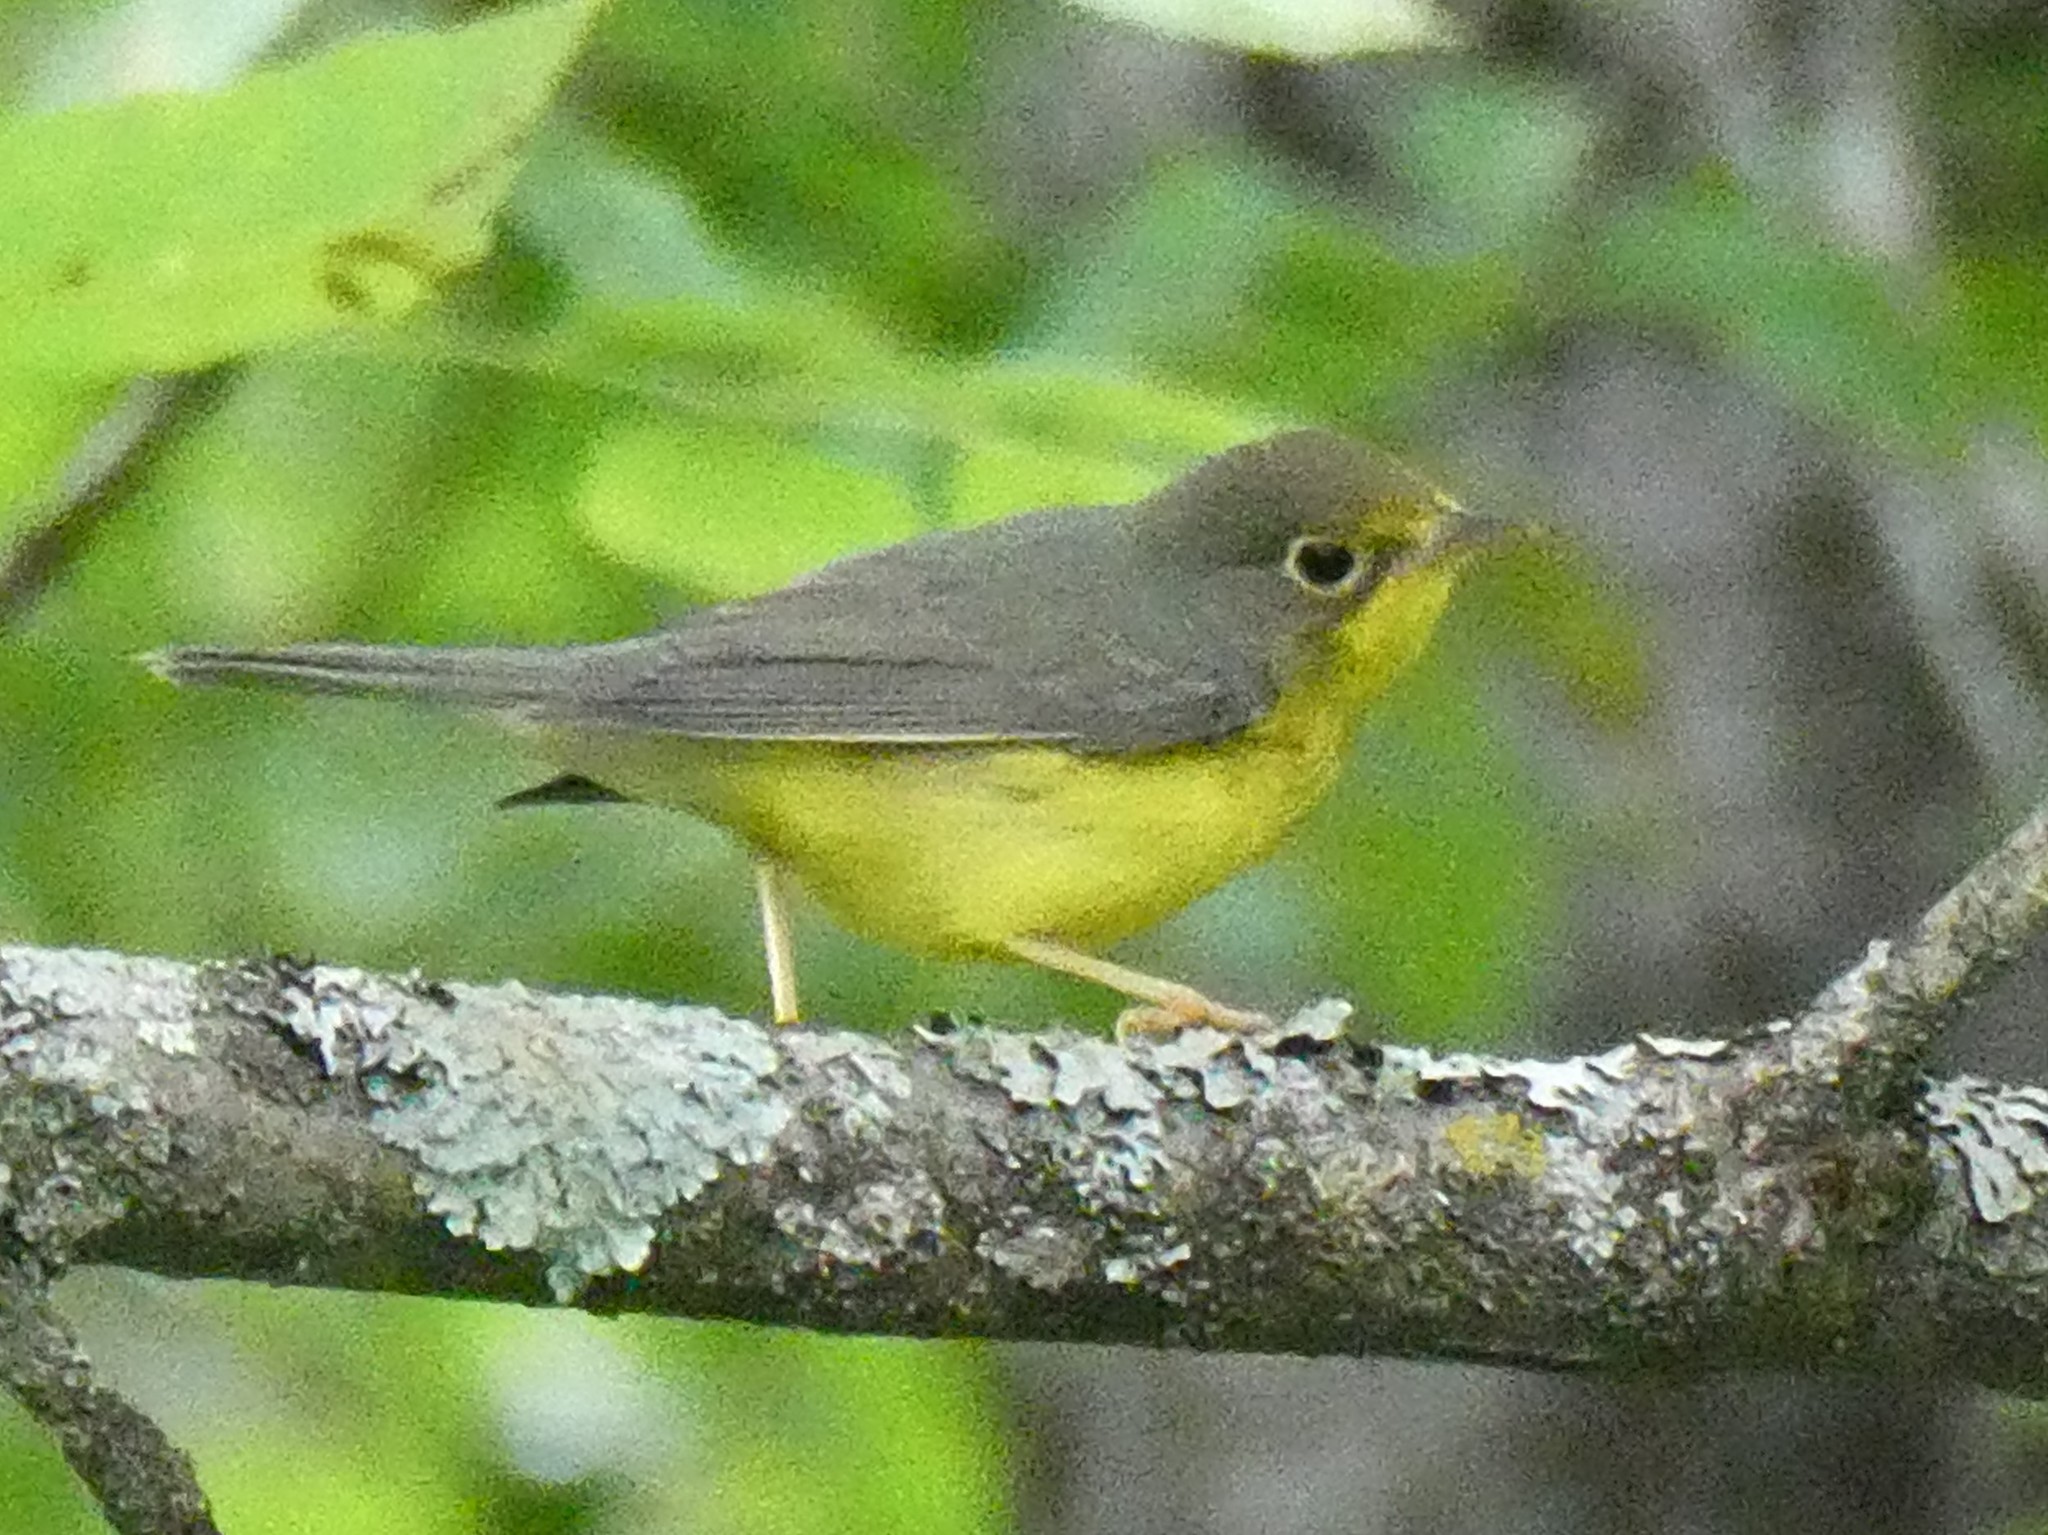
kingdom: Animalia
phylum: Chordata
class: Aves
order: Passeriformes
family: Parulidae
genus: Cardellina
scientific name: Cardellina canadensis
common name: Canada warbler
